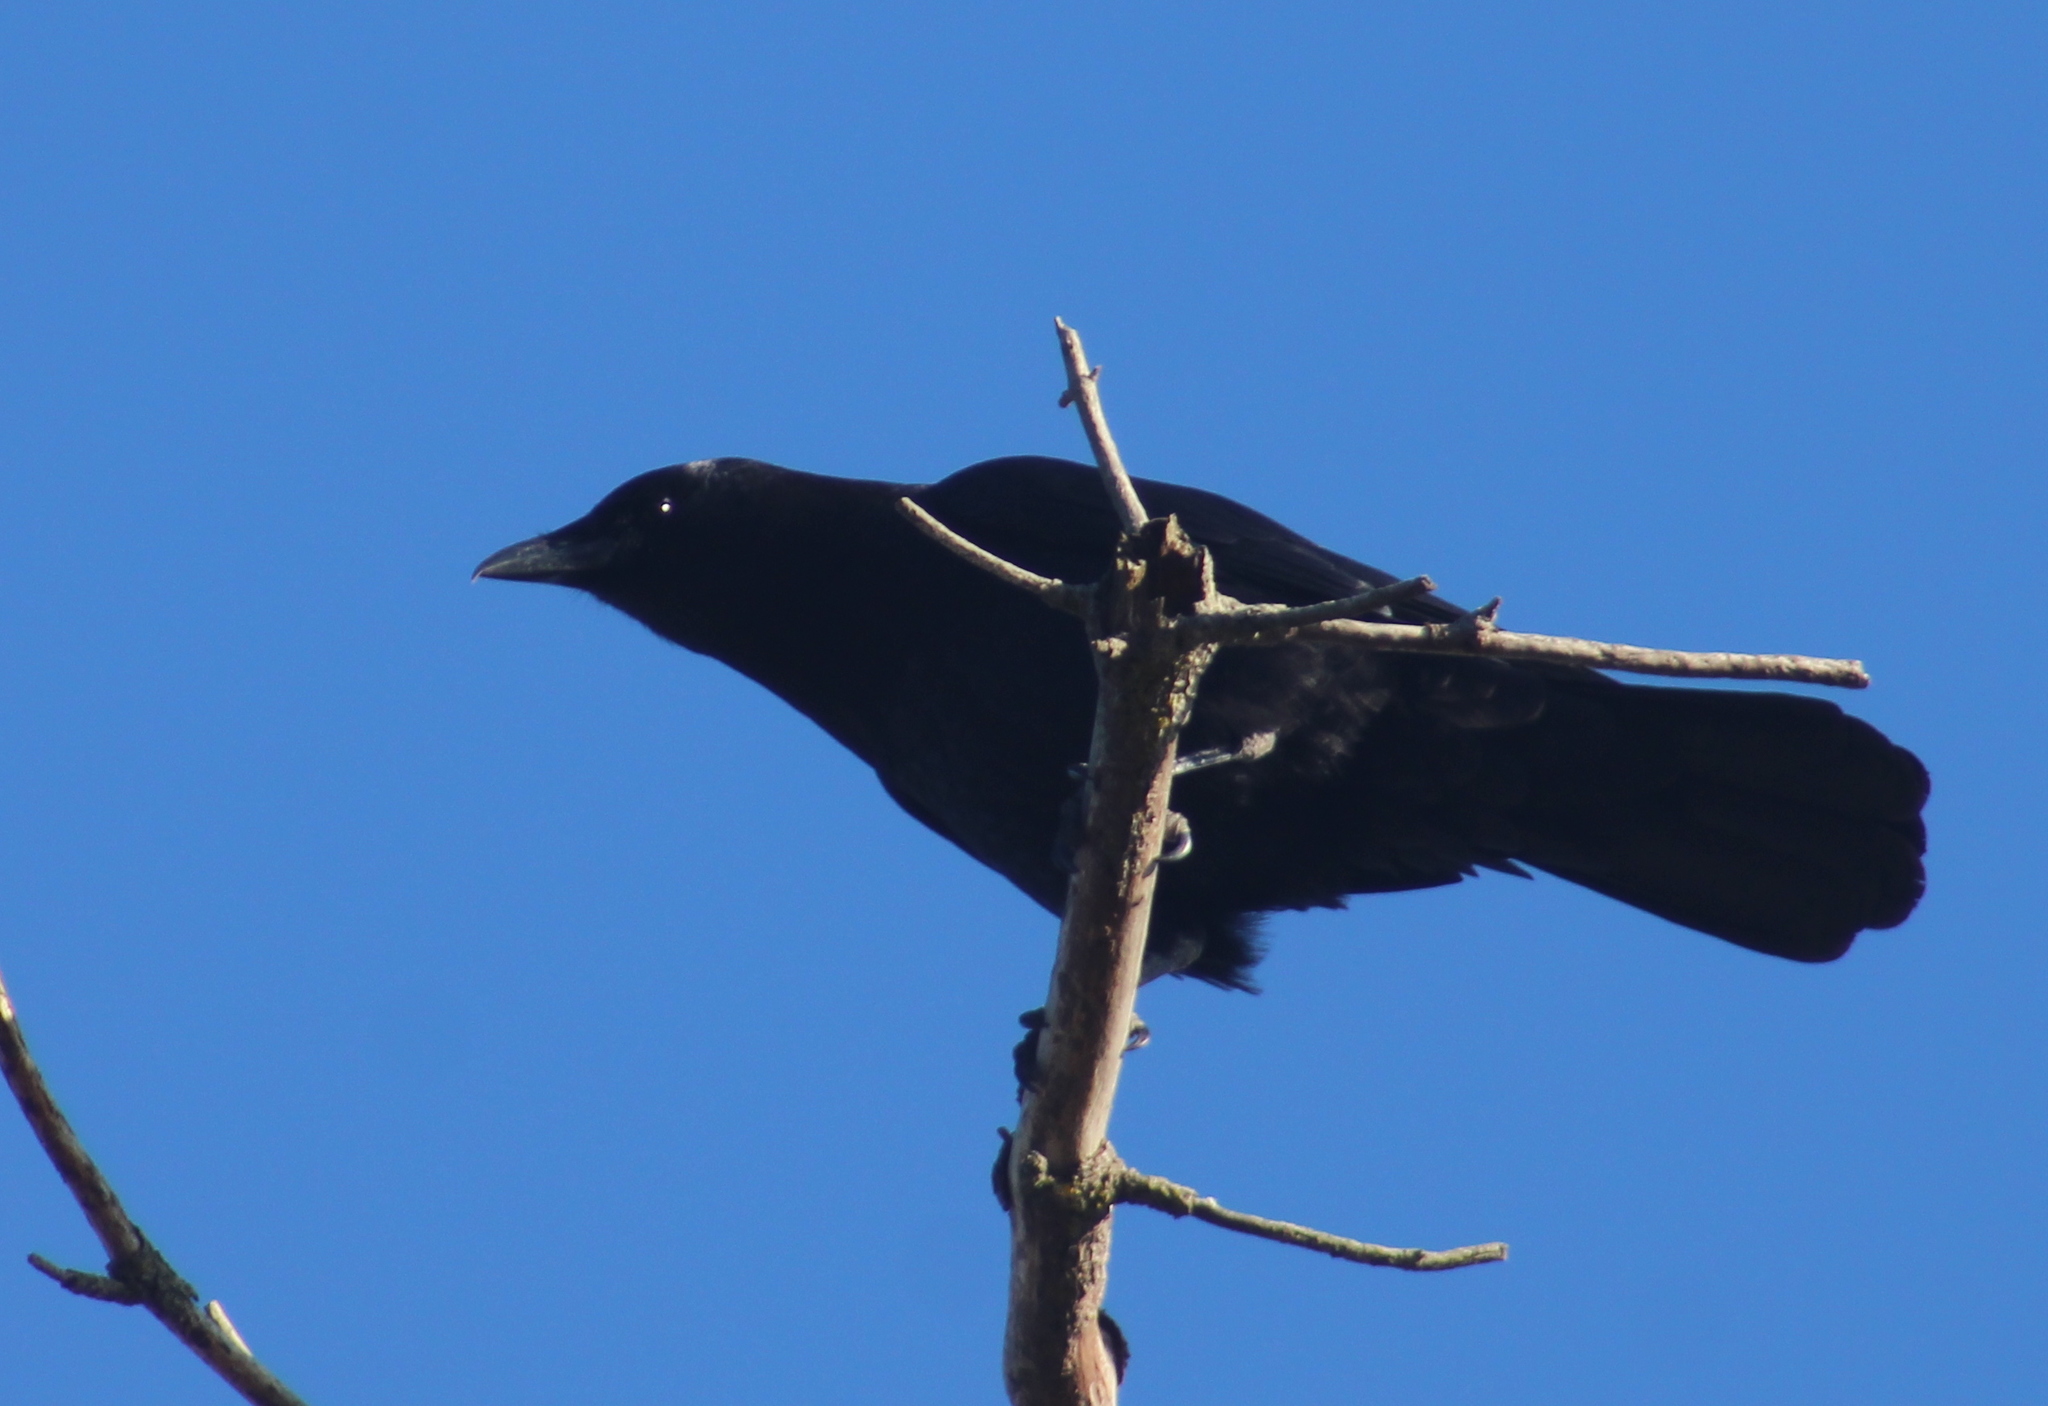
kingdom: Animalia
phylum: Chordata
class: Aves
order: Passeriformes
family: Corvidae
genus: Corvus
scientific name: Corvus brachyrhynchos
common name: American crow
